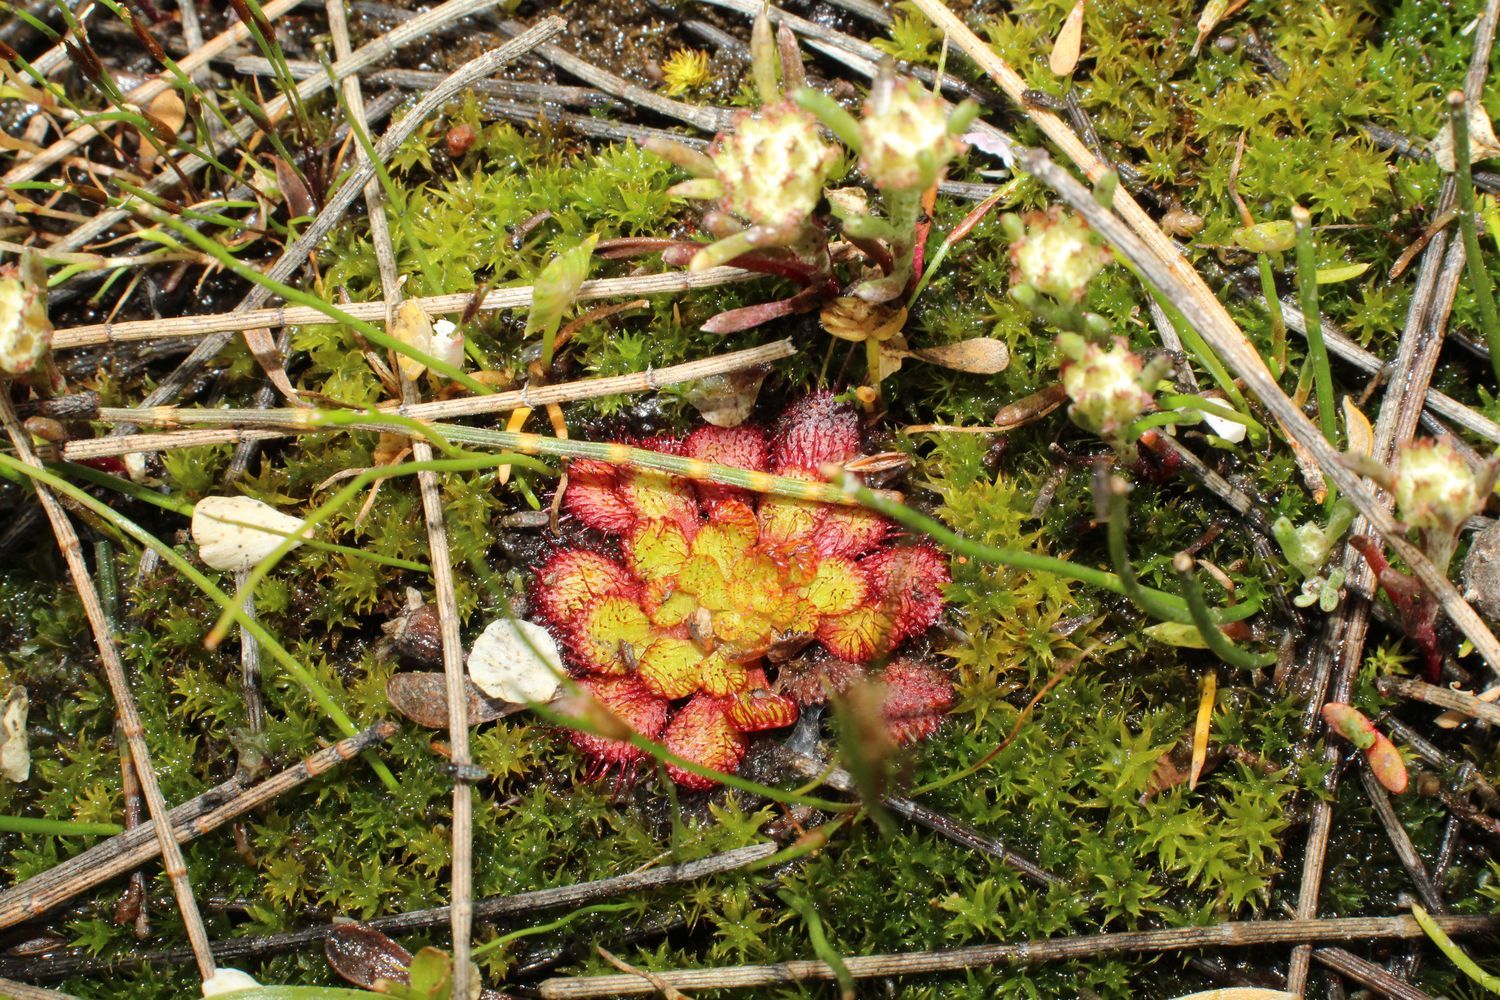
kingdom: Plantae
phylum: Tracheophyta
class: Magnoliopsida
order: Caryophyllales
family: Droseraceae
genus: Drosera
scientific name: Drosera lowriei
